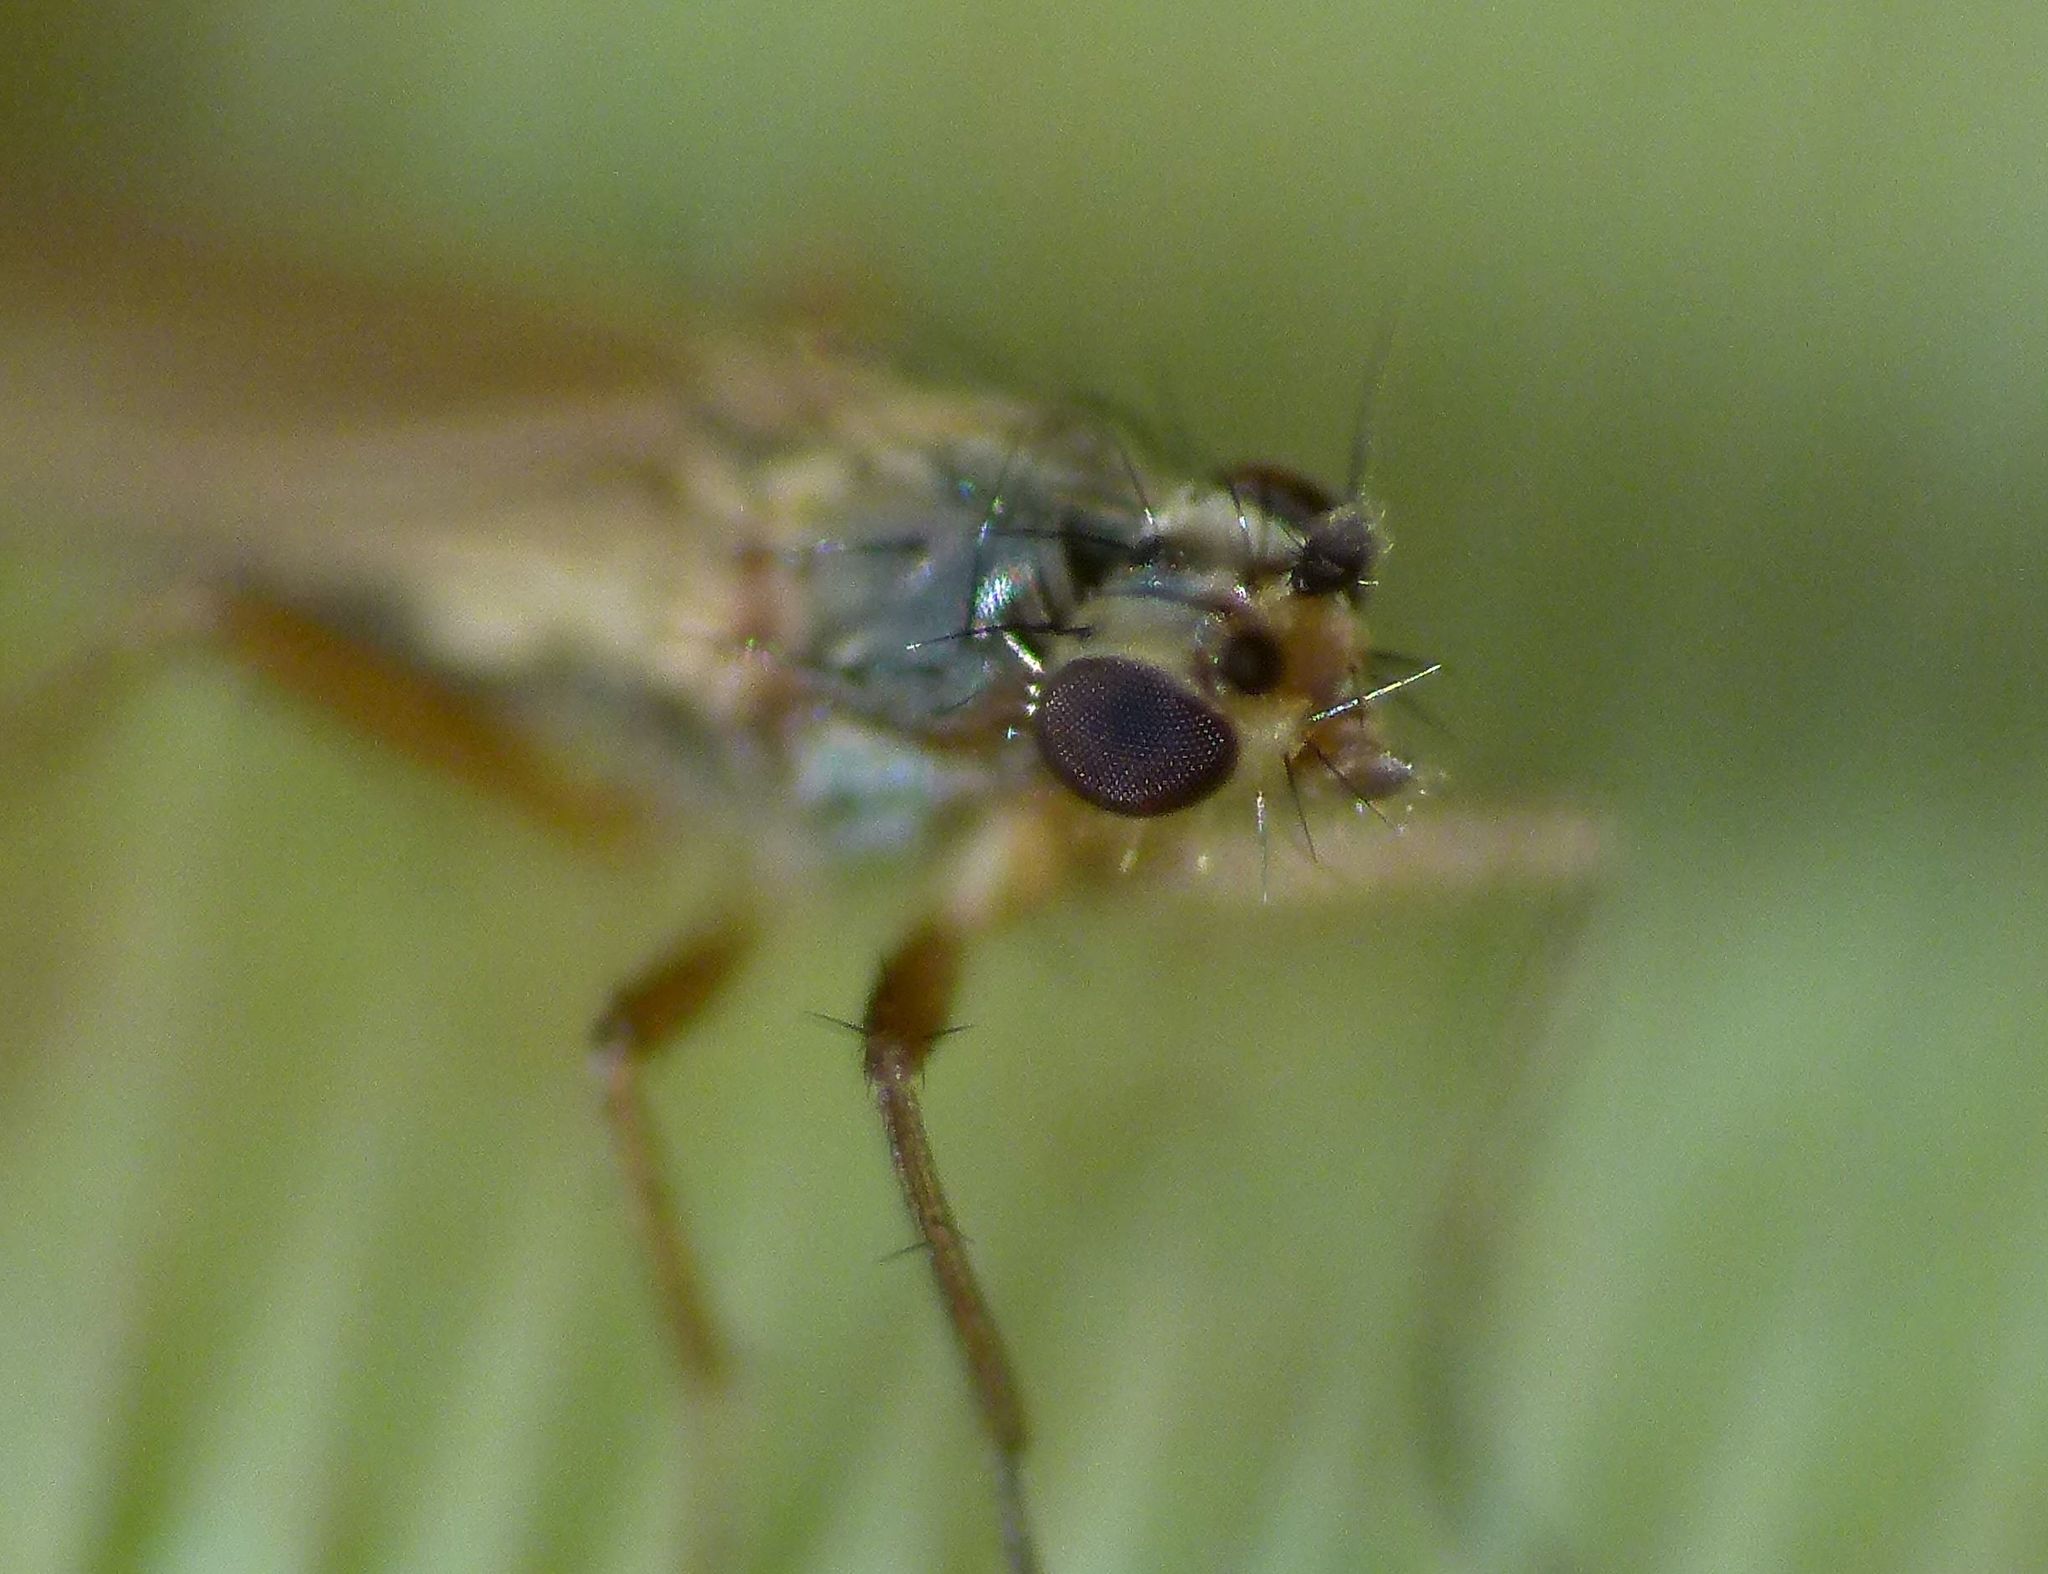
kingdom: Animalia
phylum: Arthropoda
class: Insecta
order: Diptera
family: Lonchopteridae
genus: Lonchoptera
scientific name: Lonchoptera bifurcata
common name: Spear-winged fly
